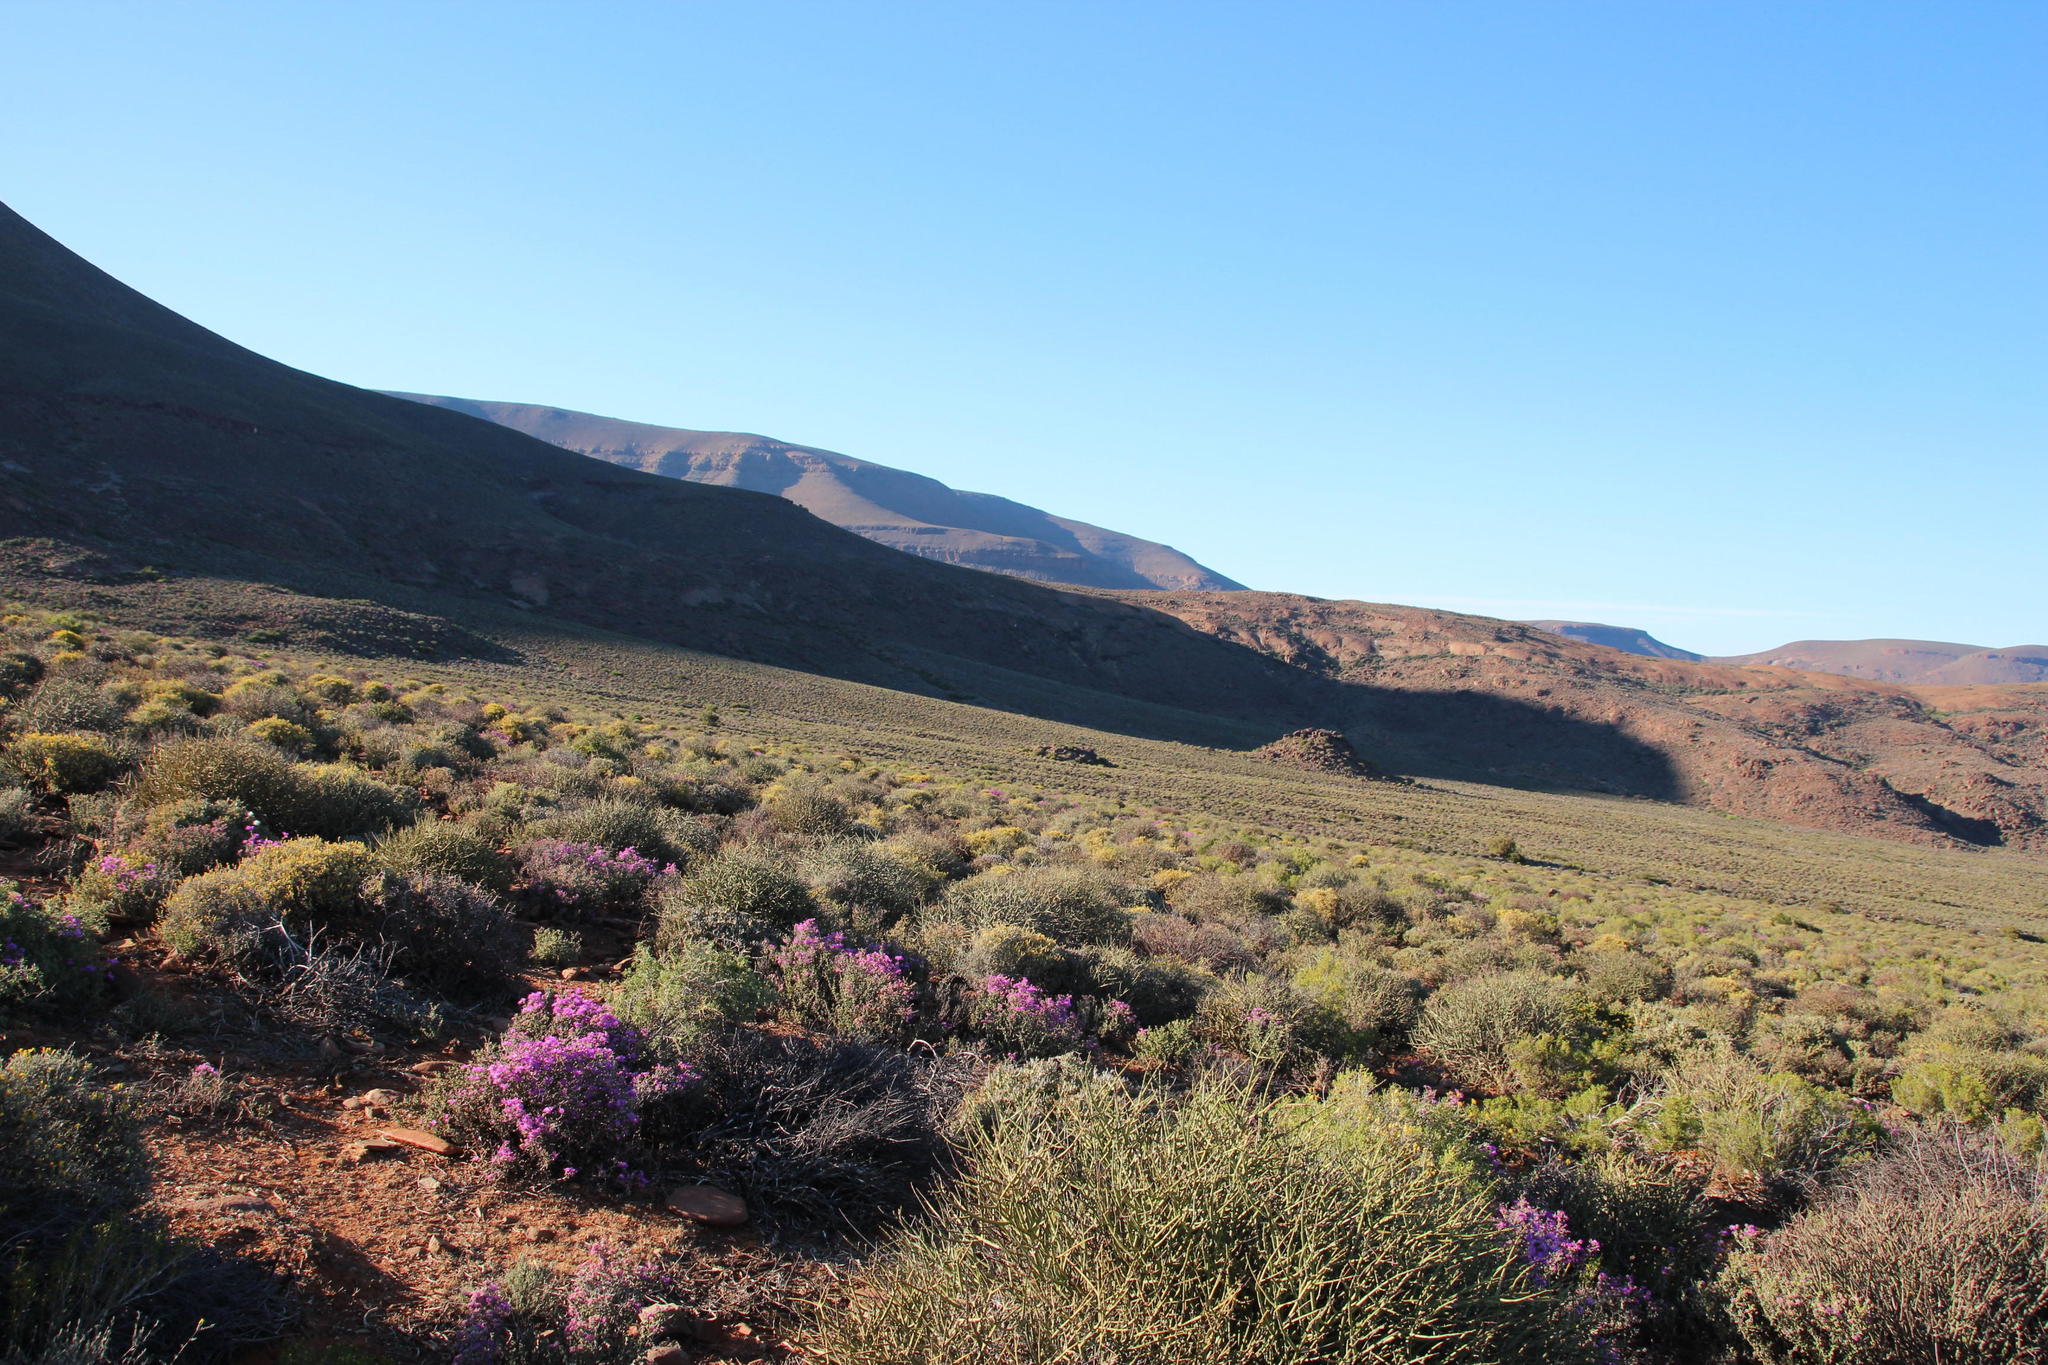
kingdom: Plantae
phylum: Tracheophyta
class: Magnoliopsida
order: Asterales
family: Asteraceae
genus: Pteronia
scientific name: Pteronia incana
